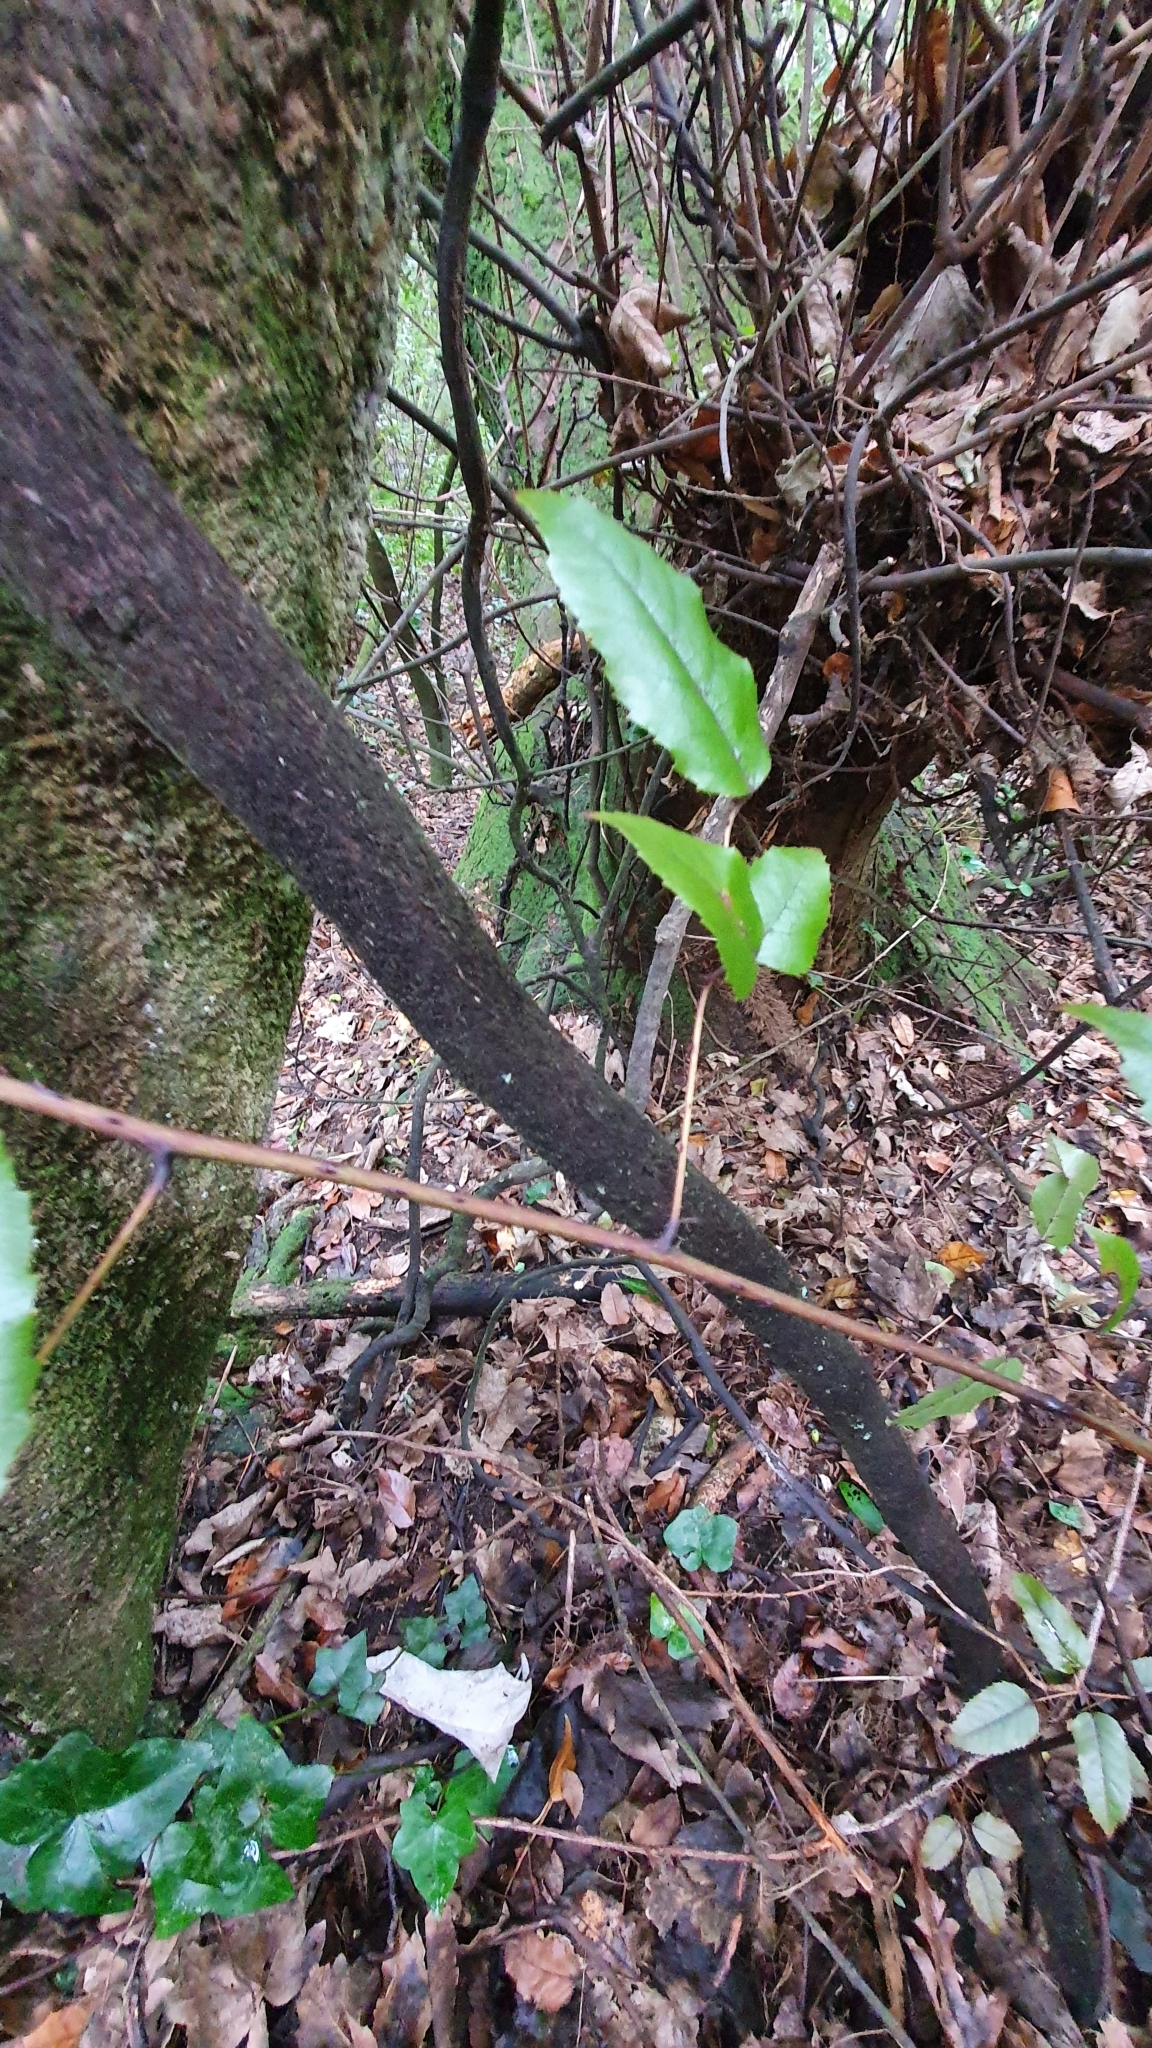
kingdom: Plantae
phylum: Tracheophyta
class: Magnoliopsida
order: Rosales
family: Rosaceae
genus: Rubus
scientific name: Rubus cissoides
